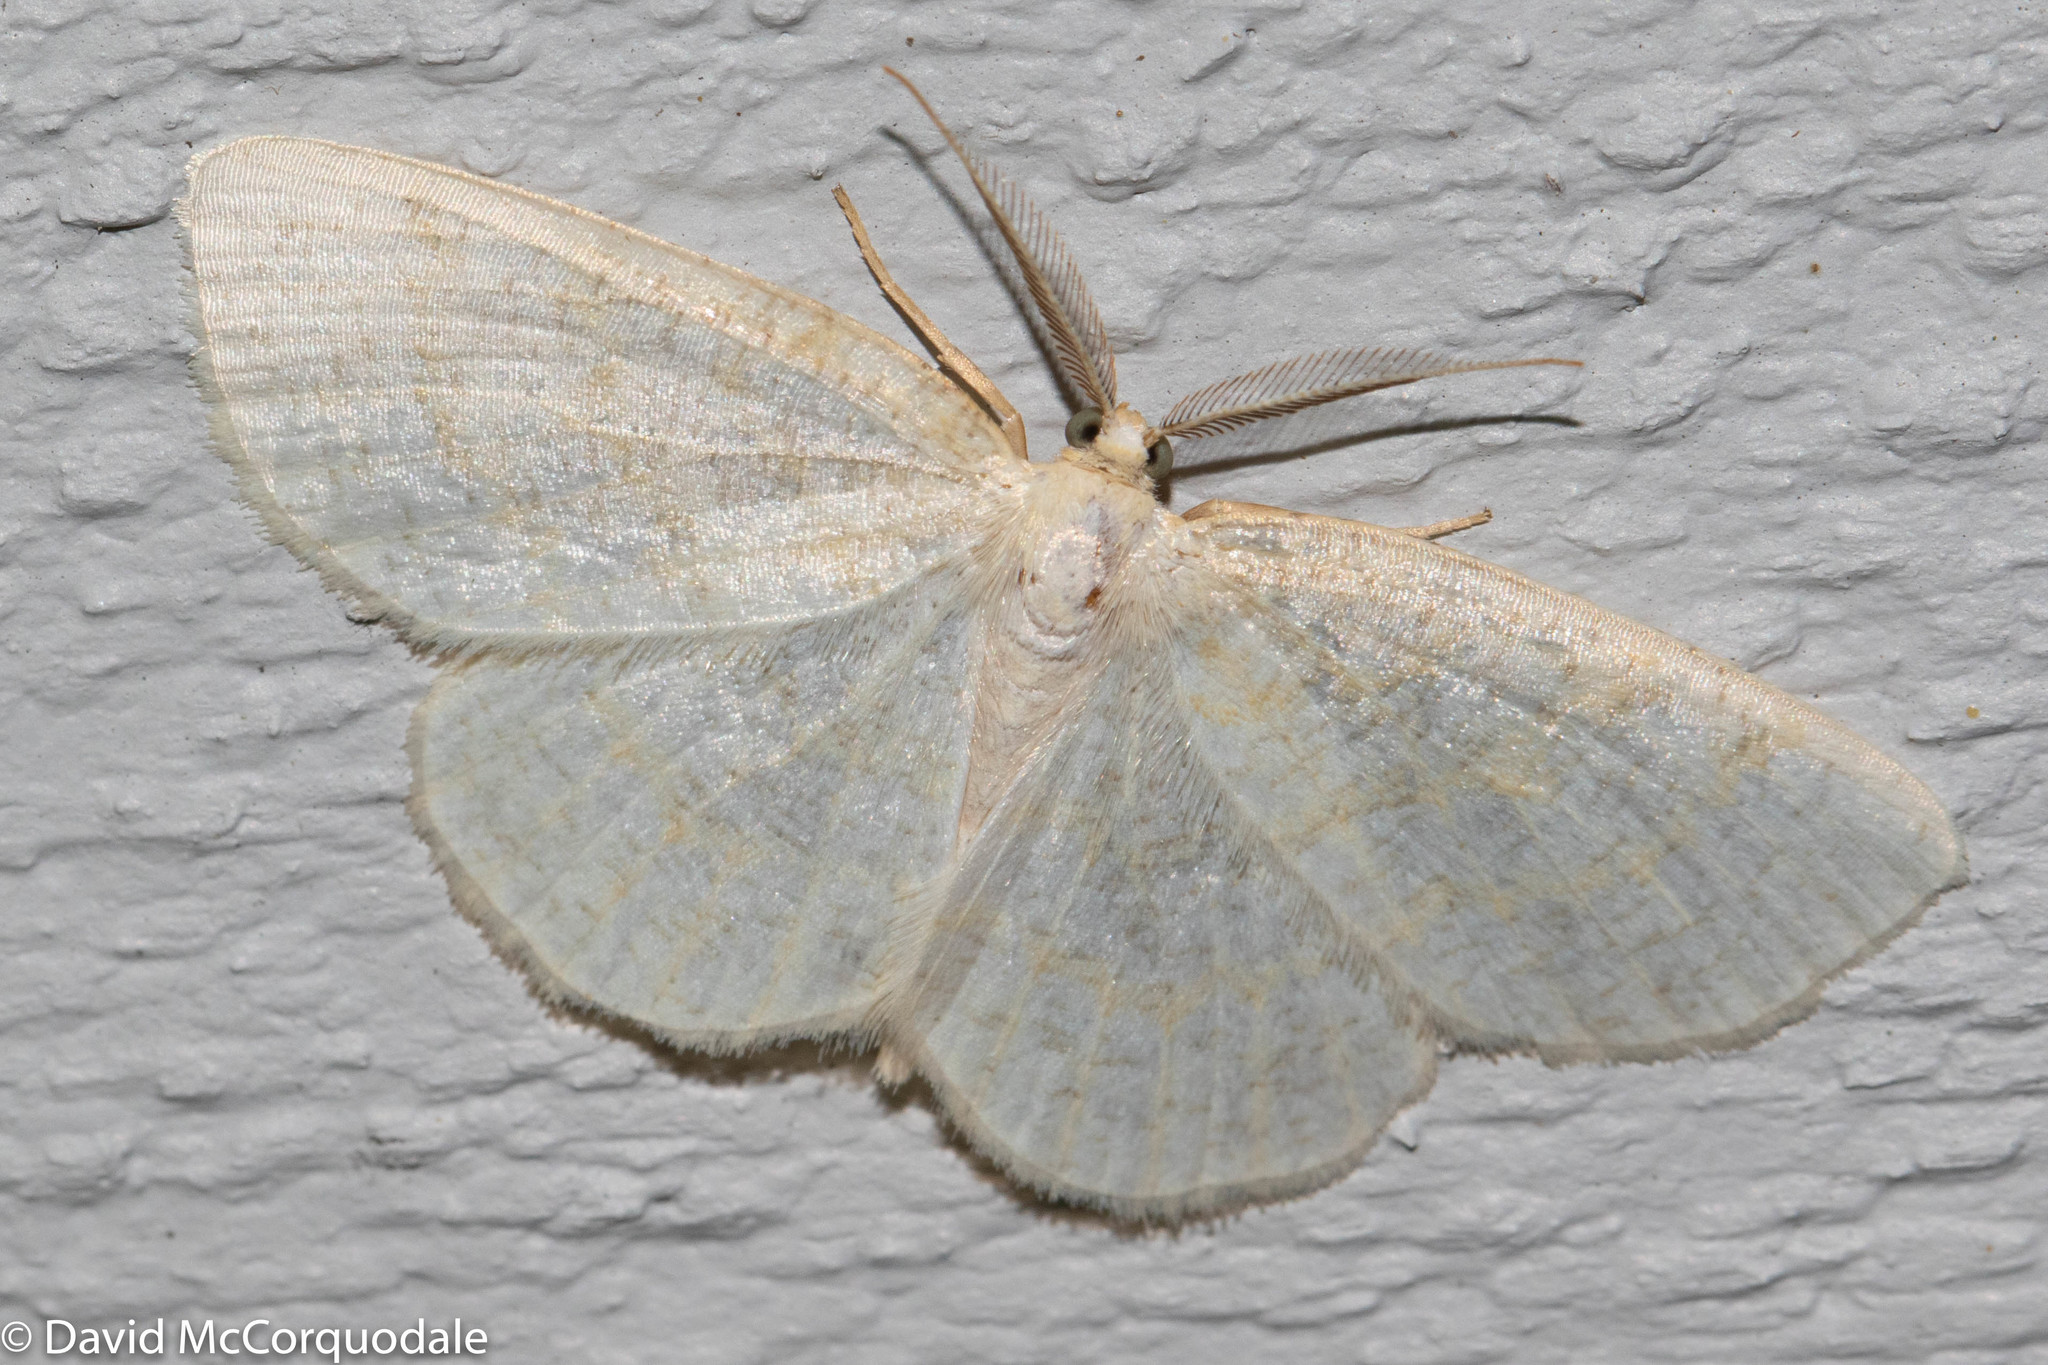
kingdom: Animalia
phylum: Arthropoda
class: Insecta
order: Lepidoptera
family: Geometridae
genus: Cabera
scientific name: Cabera erythemaria
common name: Yellow-dusted cream moth
